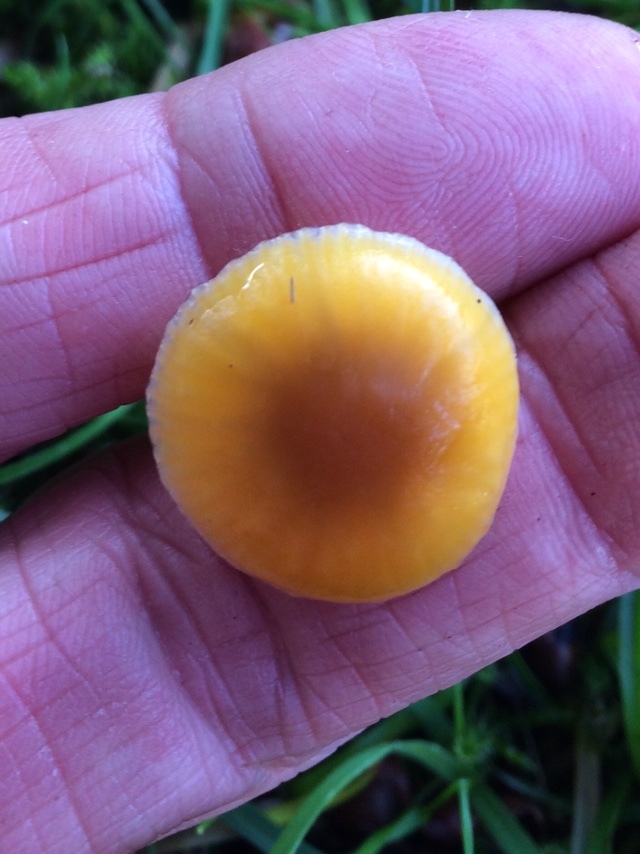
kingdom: Fungi
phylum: Basidiomycota
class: Agaricomycetes
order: Agaricales
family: Hygrophoraceae
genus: Gliophorus
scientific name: Gliophorus laetus
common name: Heath waxcap
